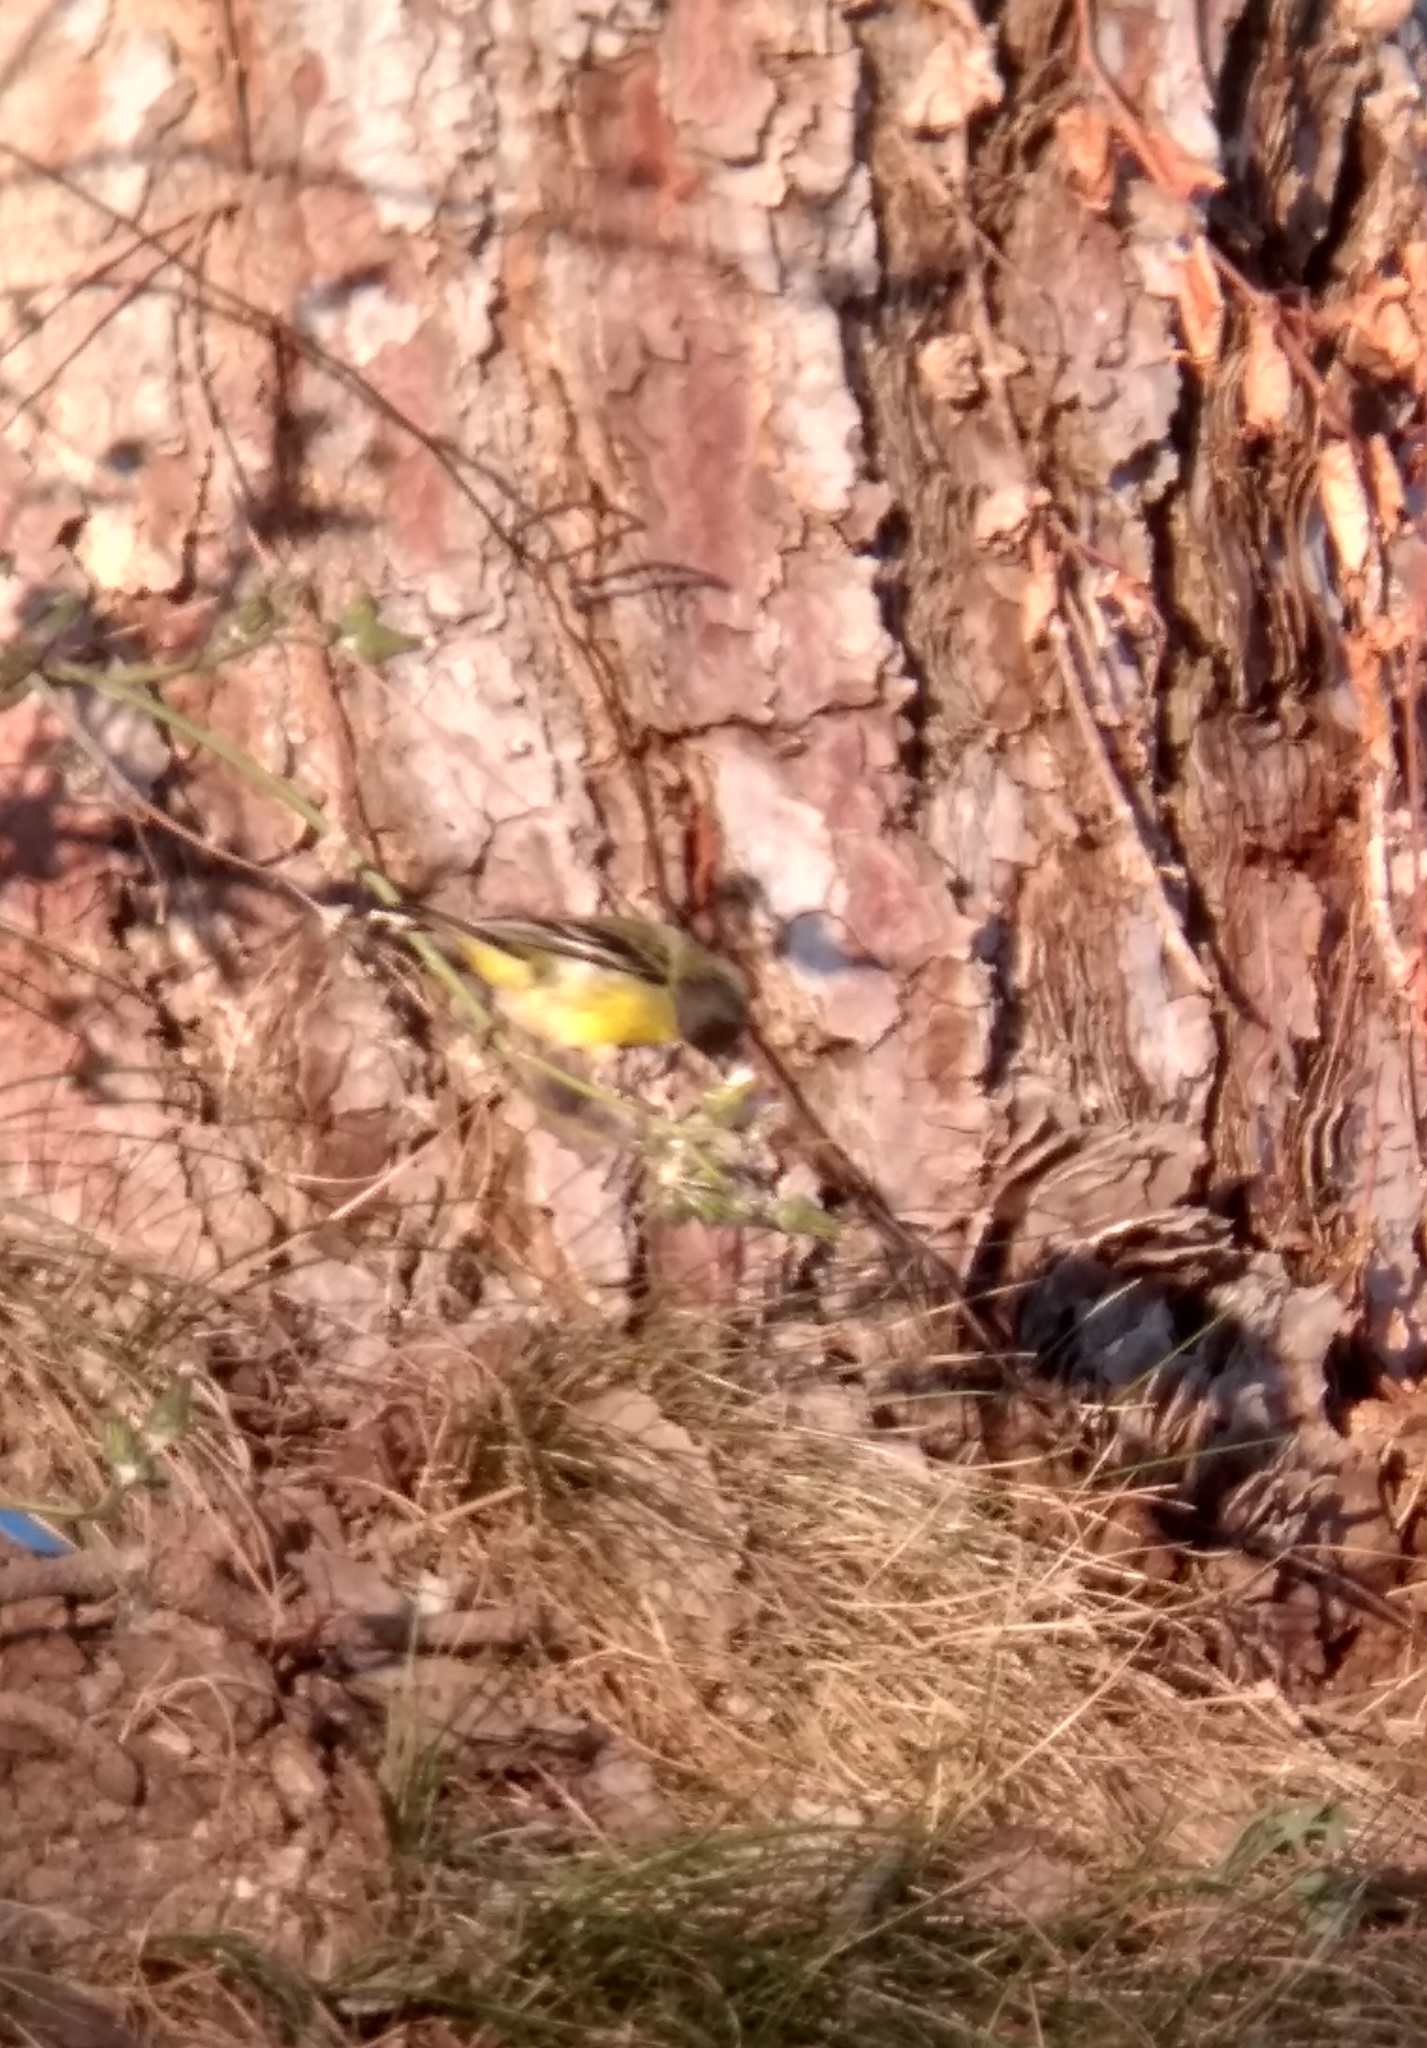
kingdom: Animalia
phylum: Chordata
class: Aves
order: Passeriformes
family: Fringillidae
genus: Spinus
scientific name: Spinus psaltria
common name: Lesser goldfinch
